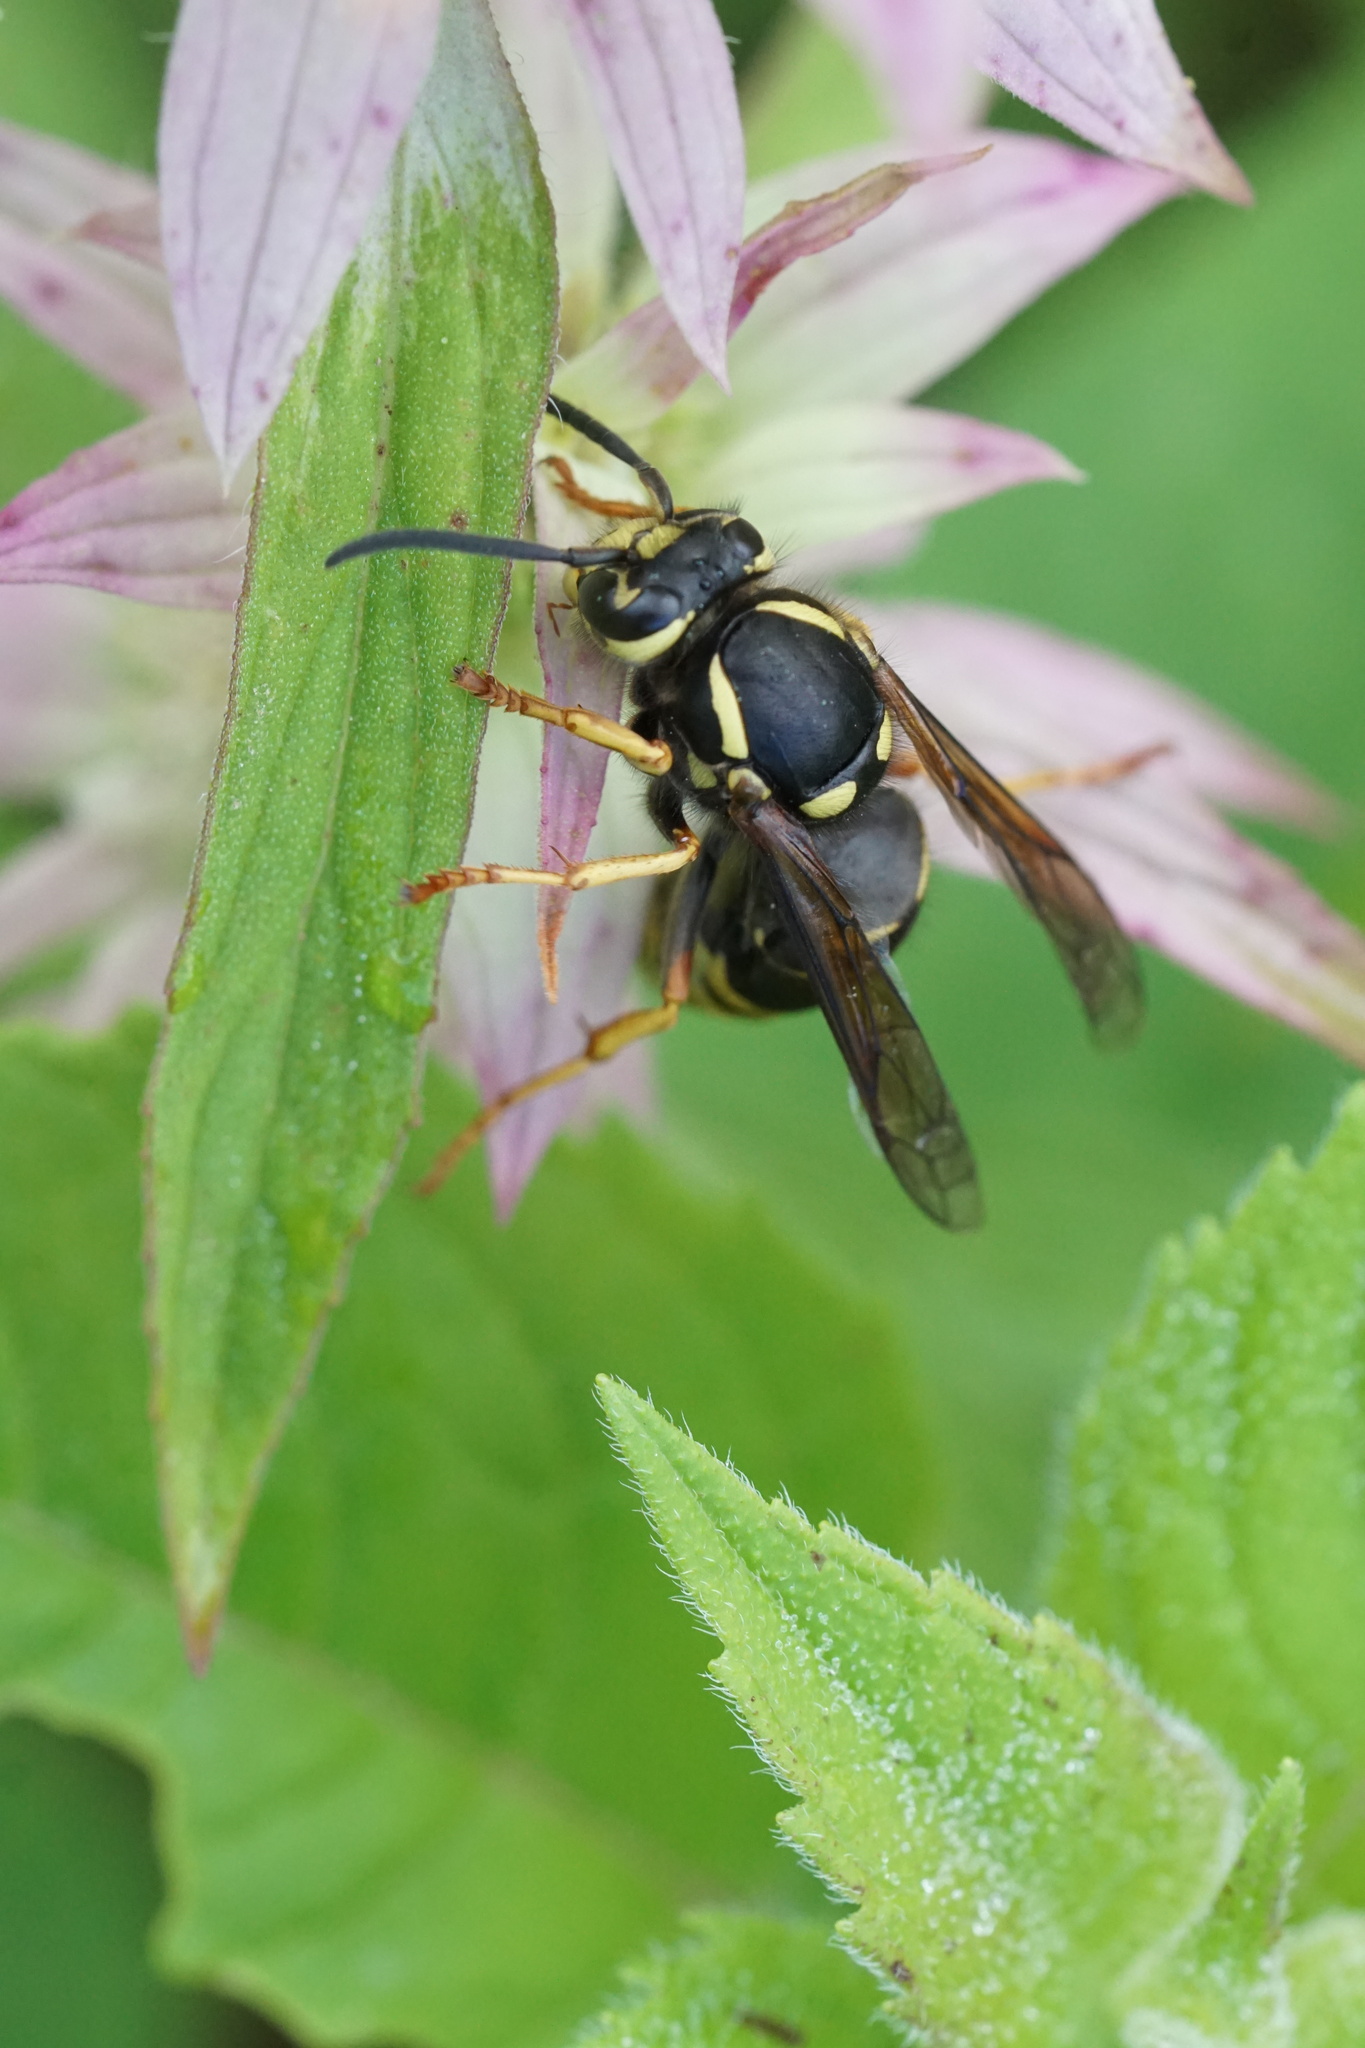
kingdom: Animalia
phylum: Arthropoda
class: Insecta
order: Hymenoptera
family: Vespidae
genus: Vespula
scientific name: Vespula vidua
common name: Widow yellowjacket
